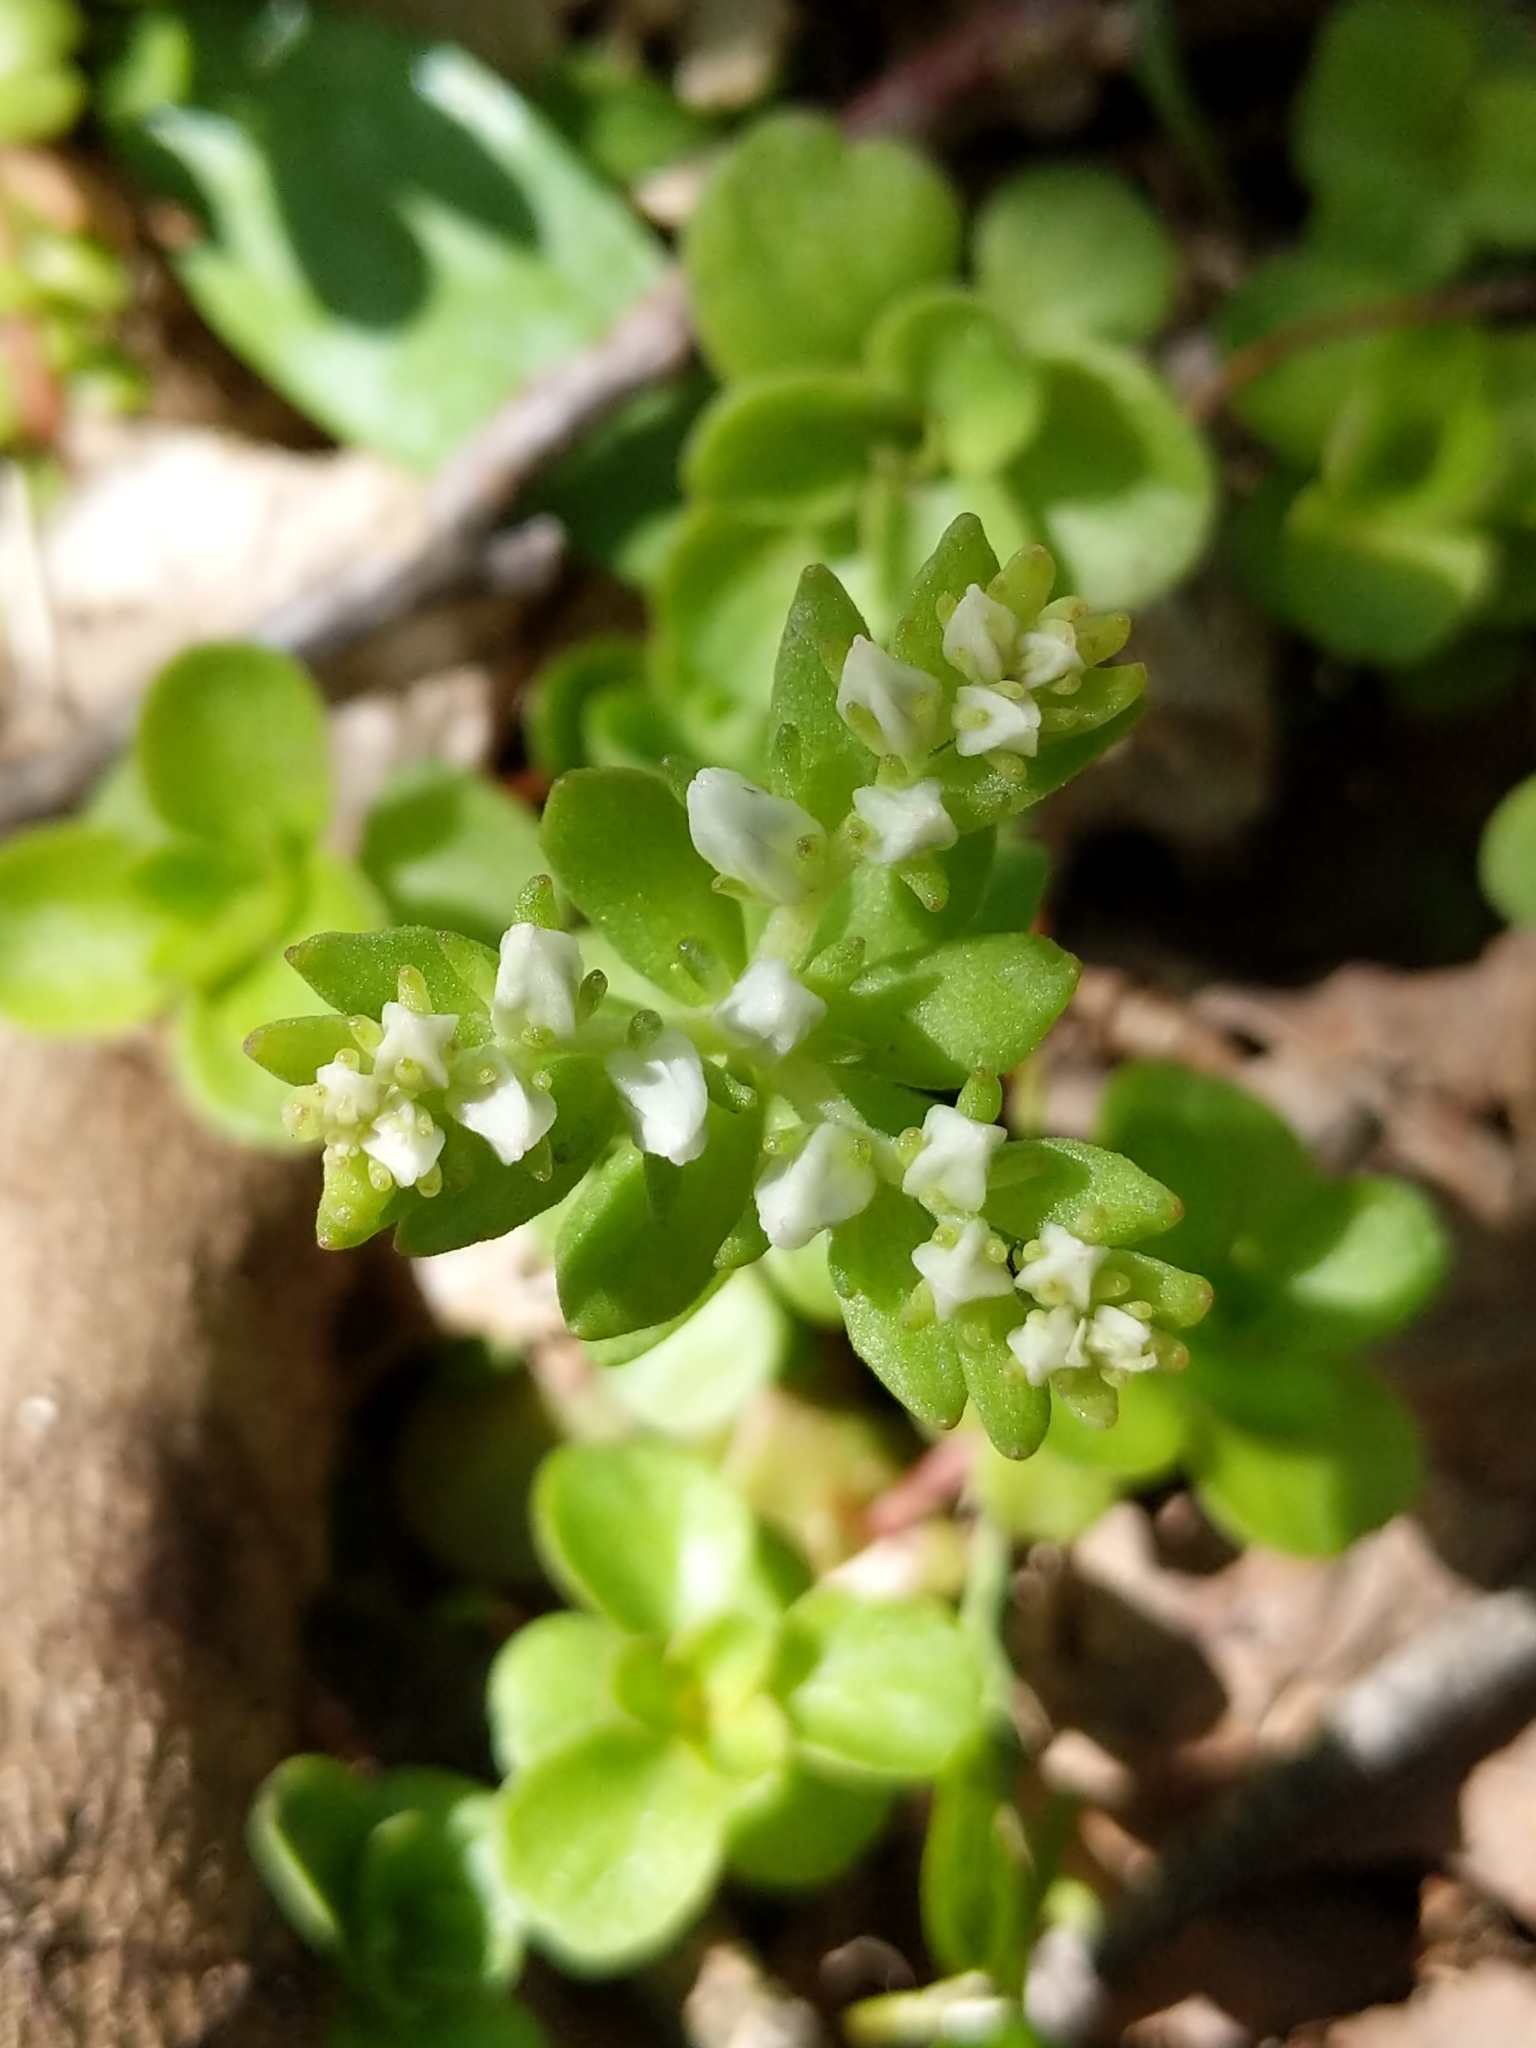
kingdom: Plantae
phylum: Tracheophyta
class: Magnoliopsida
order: Saxifragales
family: Crassulaceae
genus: Sedum
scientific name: Sedum ternatum
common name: Wild stonecrop
